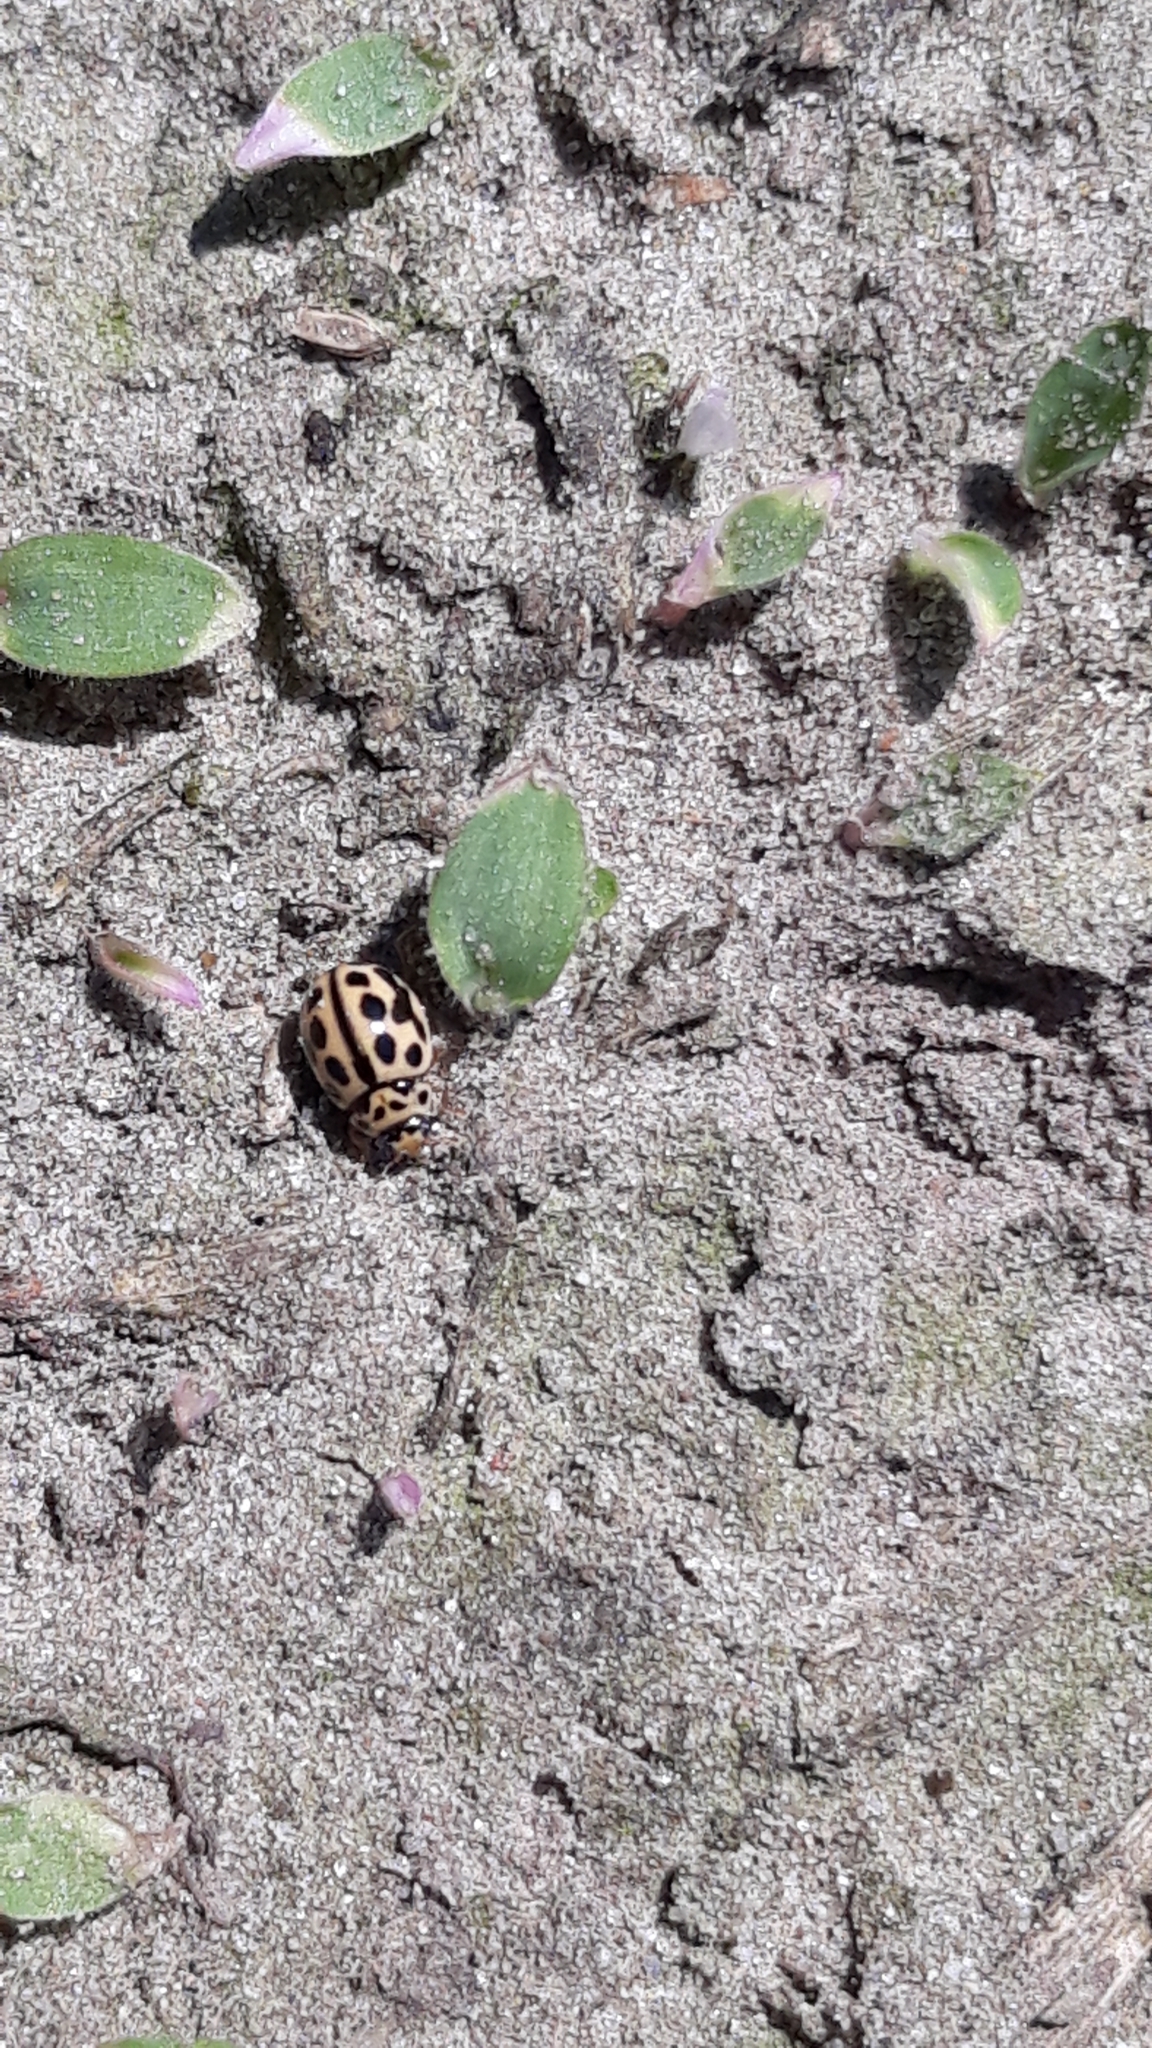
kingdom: Animalia
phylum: Arthropoda
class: Insecta
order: Coleoptera
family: Coccinellidae
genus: Tytthaspis
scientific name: Tytthaspis sedecimpunctata
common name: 16-spot ladybird
